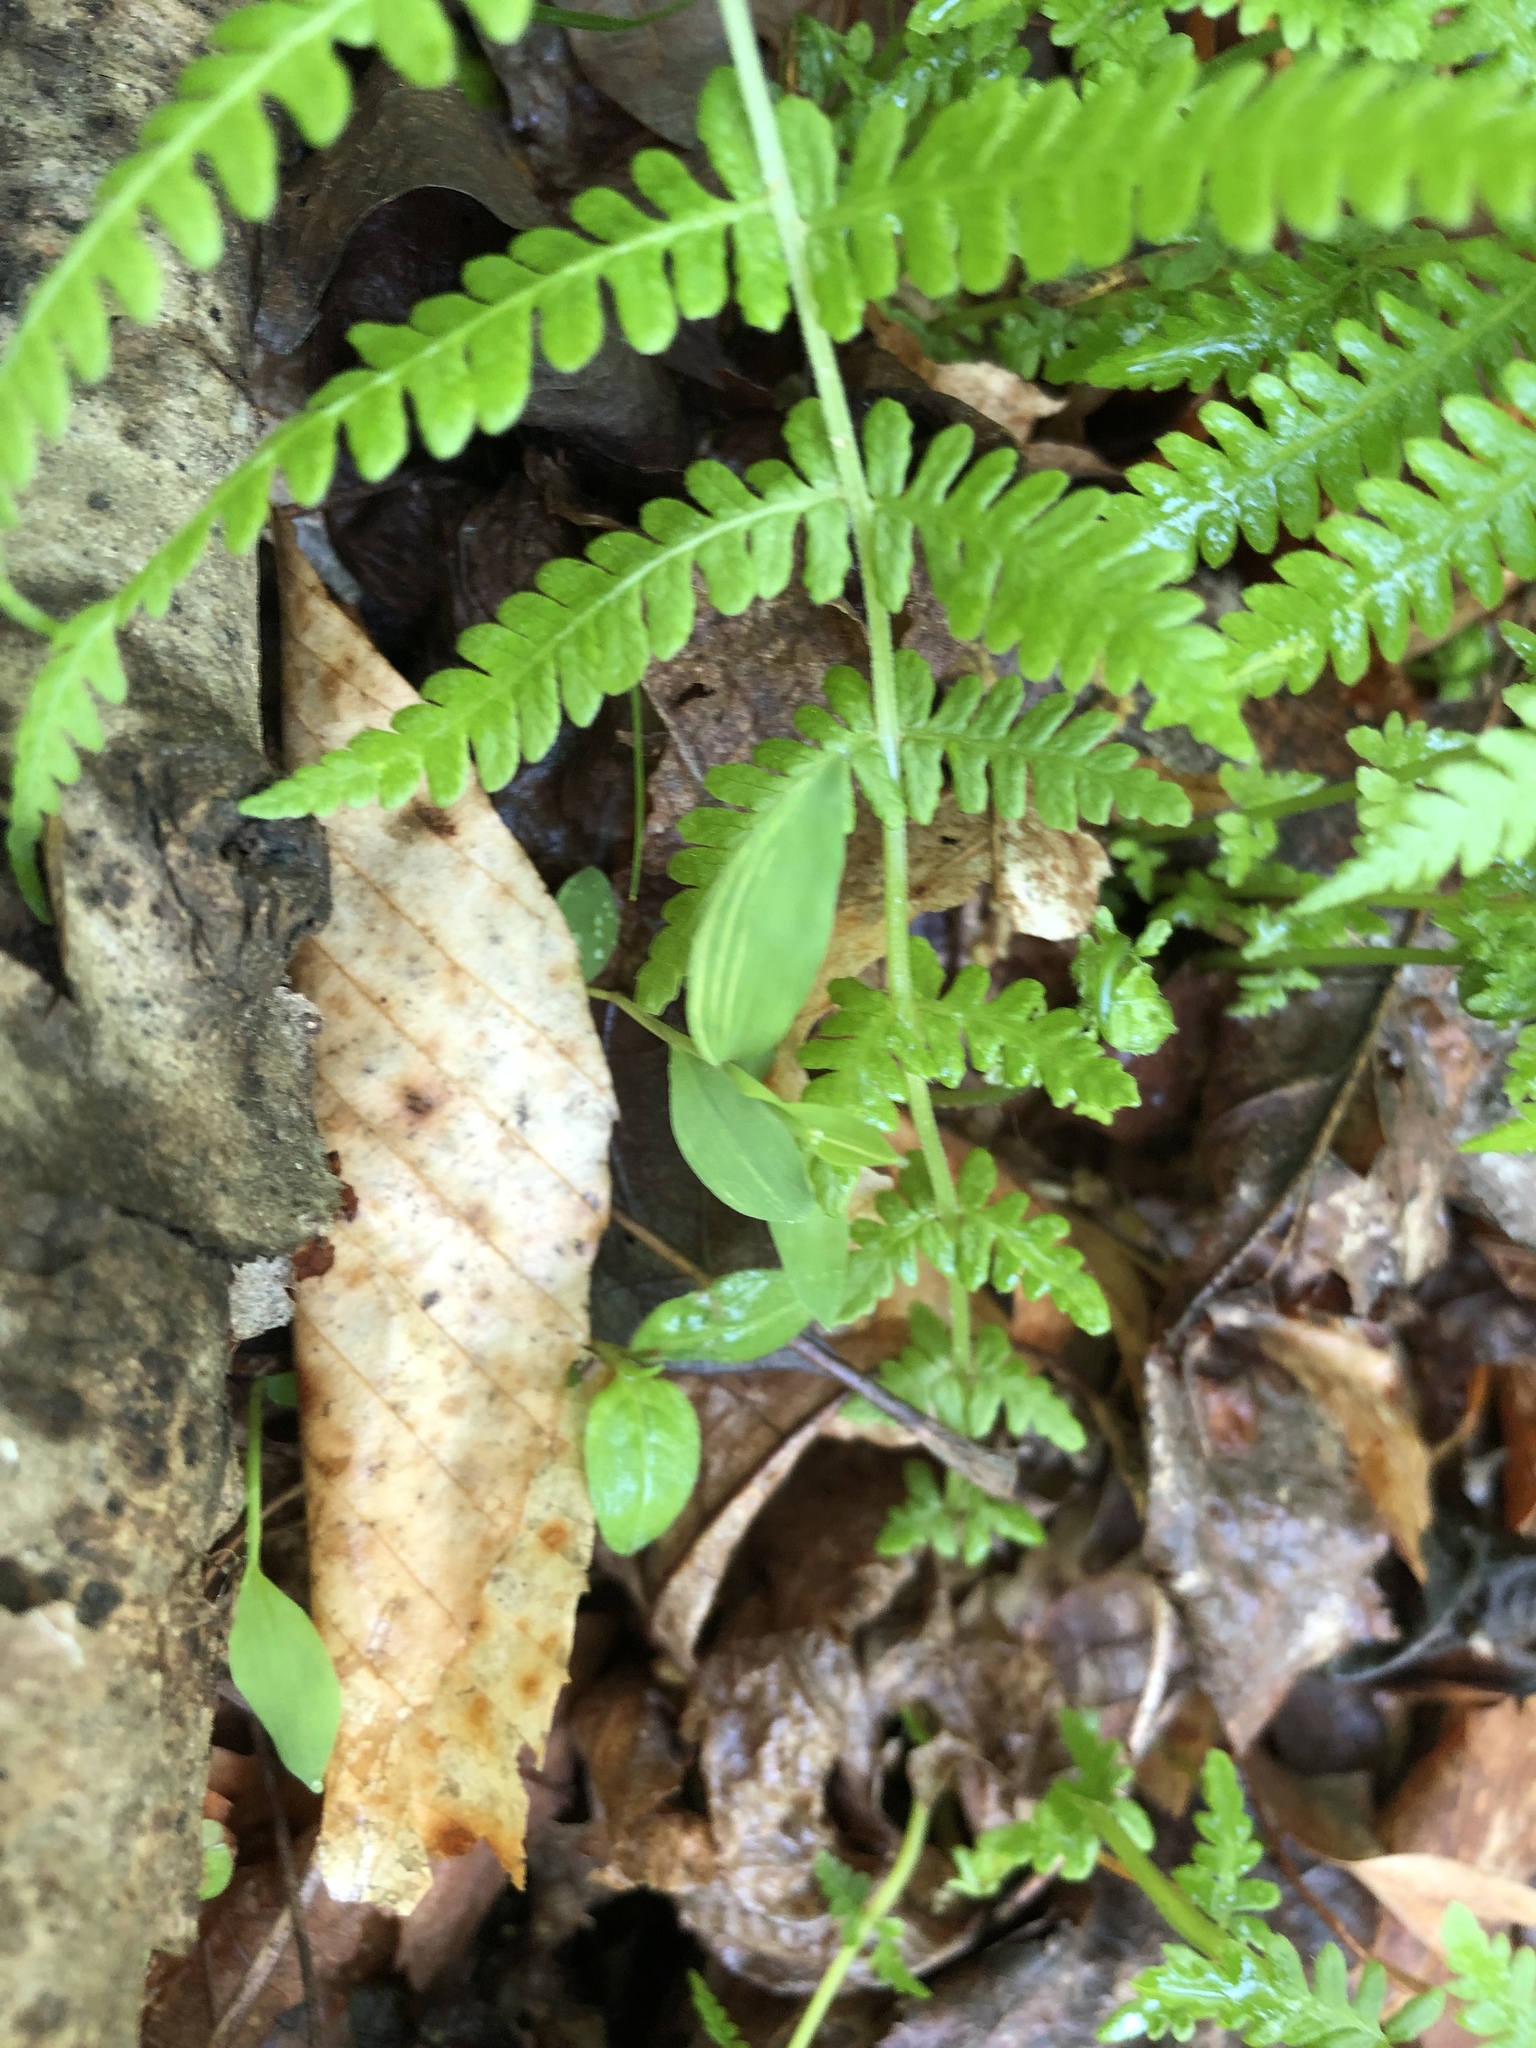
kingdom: Plantae
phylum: Tracheophyta
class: Polypodiopsida
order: Polypodiales
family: Thelypteridaceae
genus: Amauropelta
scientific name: Amauropelta noveboracensis
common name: New york fern
